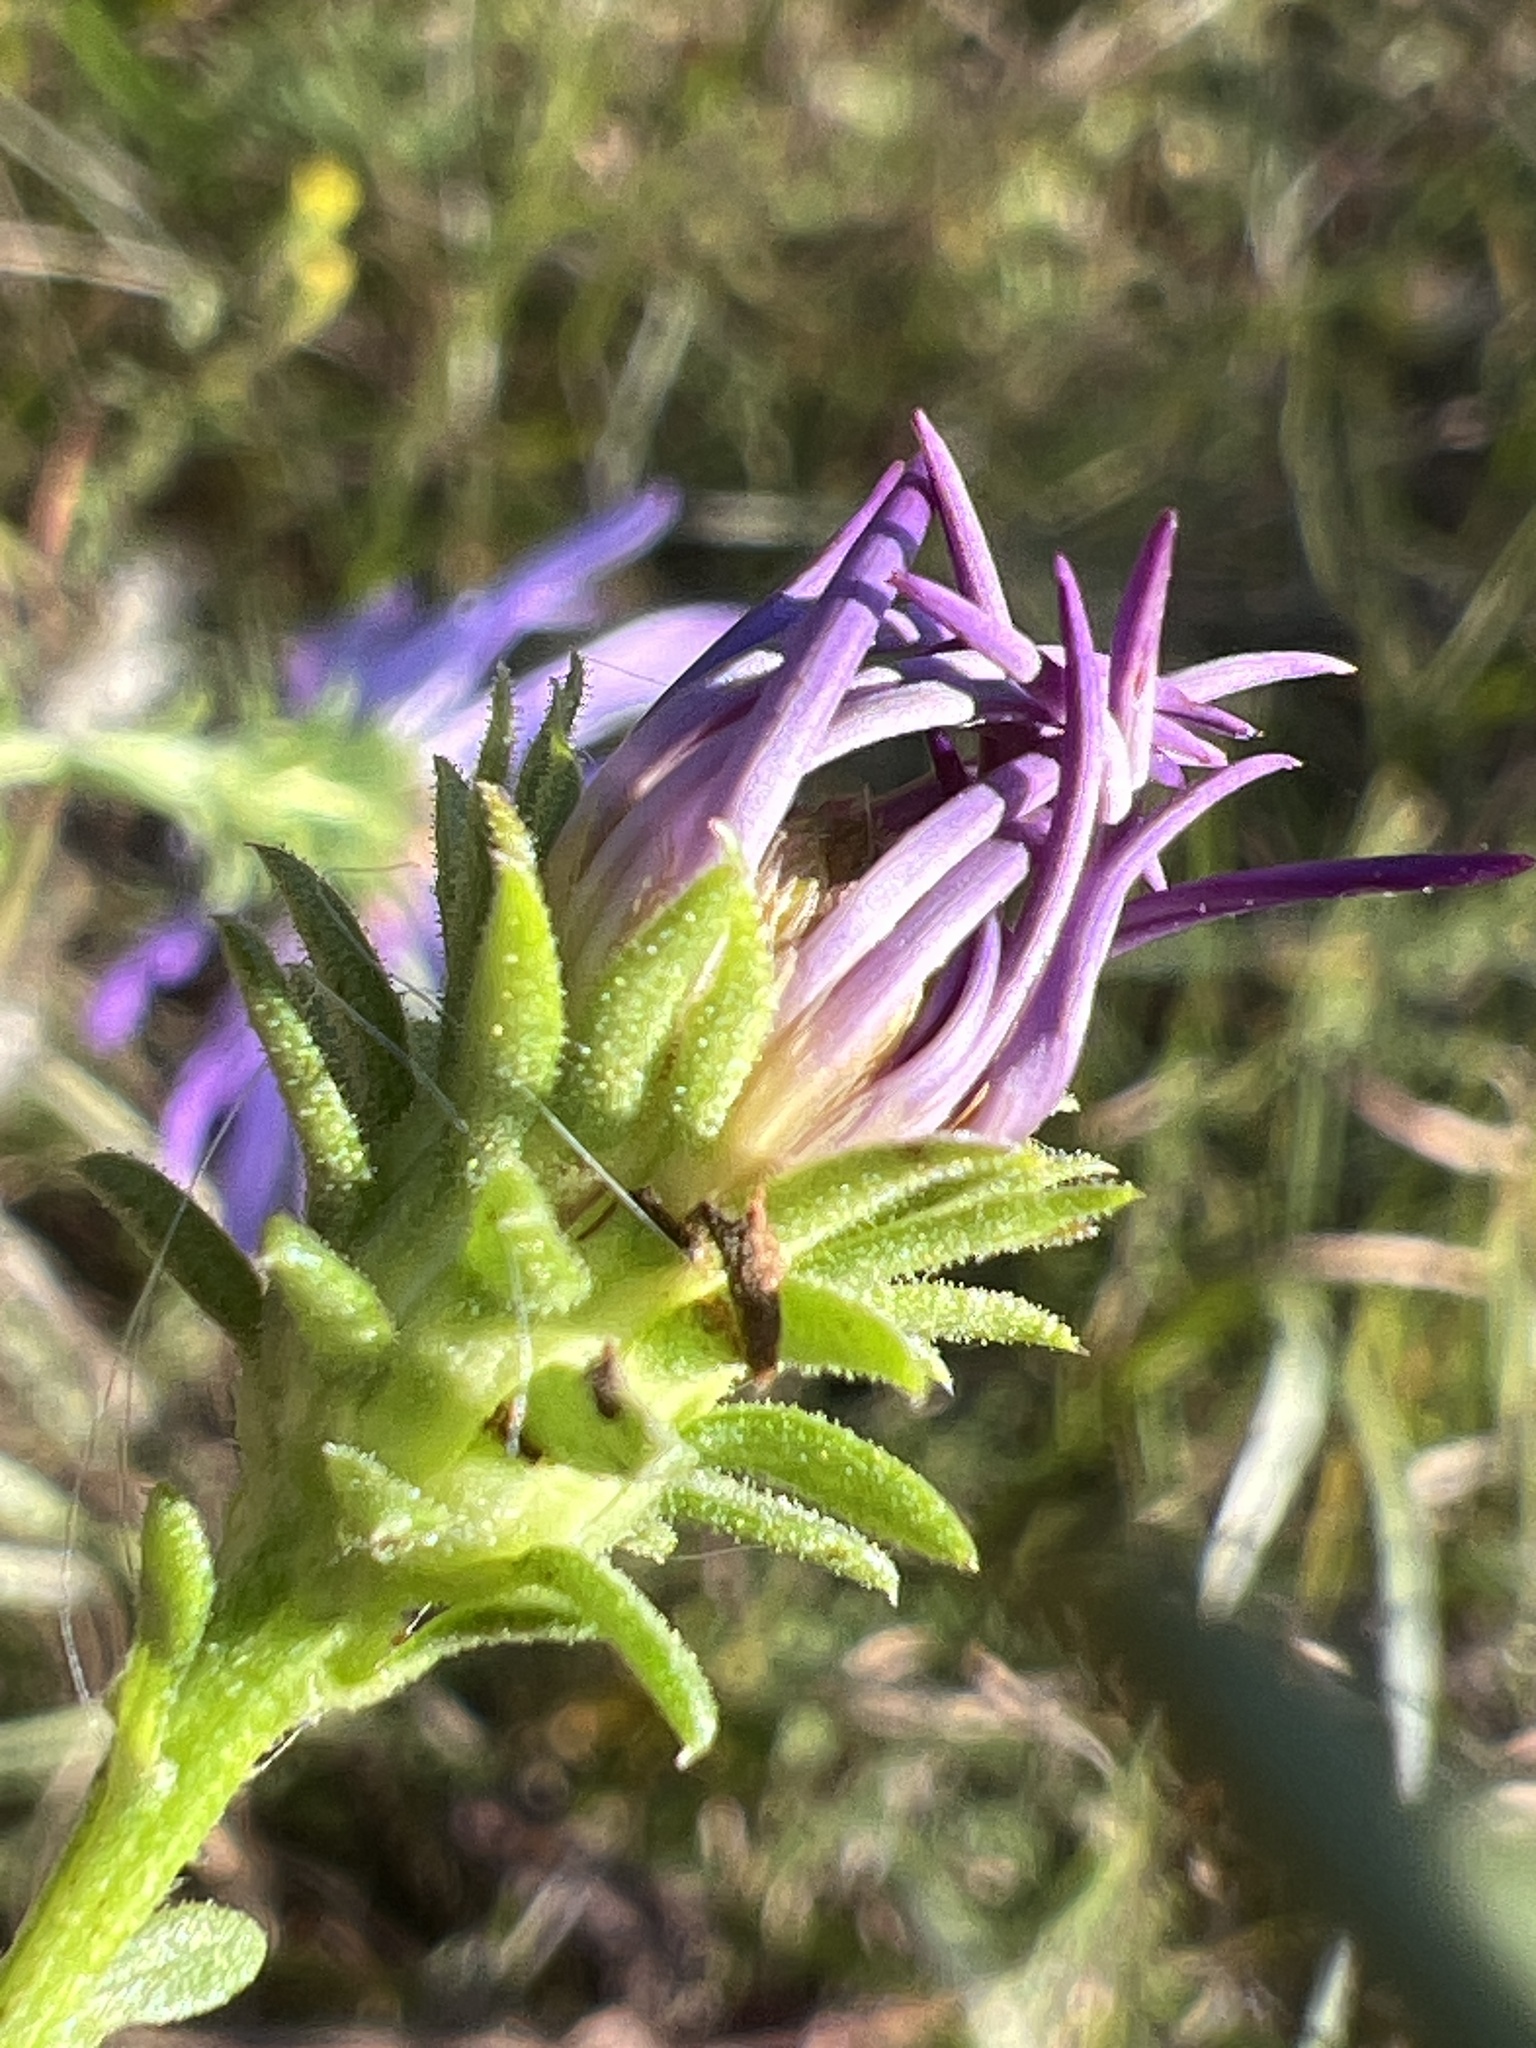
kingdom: Plantae
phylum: Tracheophyta
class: Magnoliopsida
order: Asterales
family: Asteraceae
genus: Symphyotrichum
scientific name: Symphyotrichum grandiflorum
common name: Big-head aster
